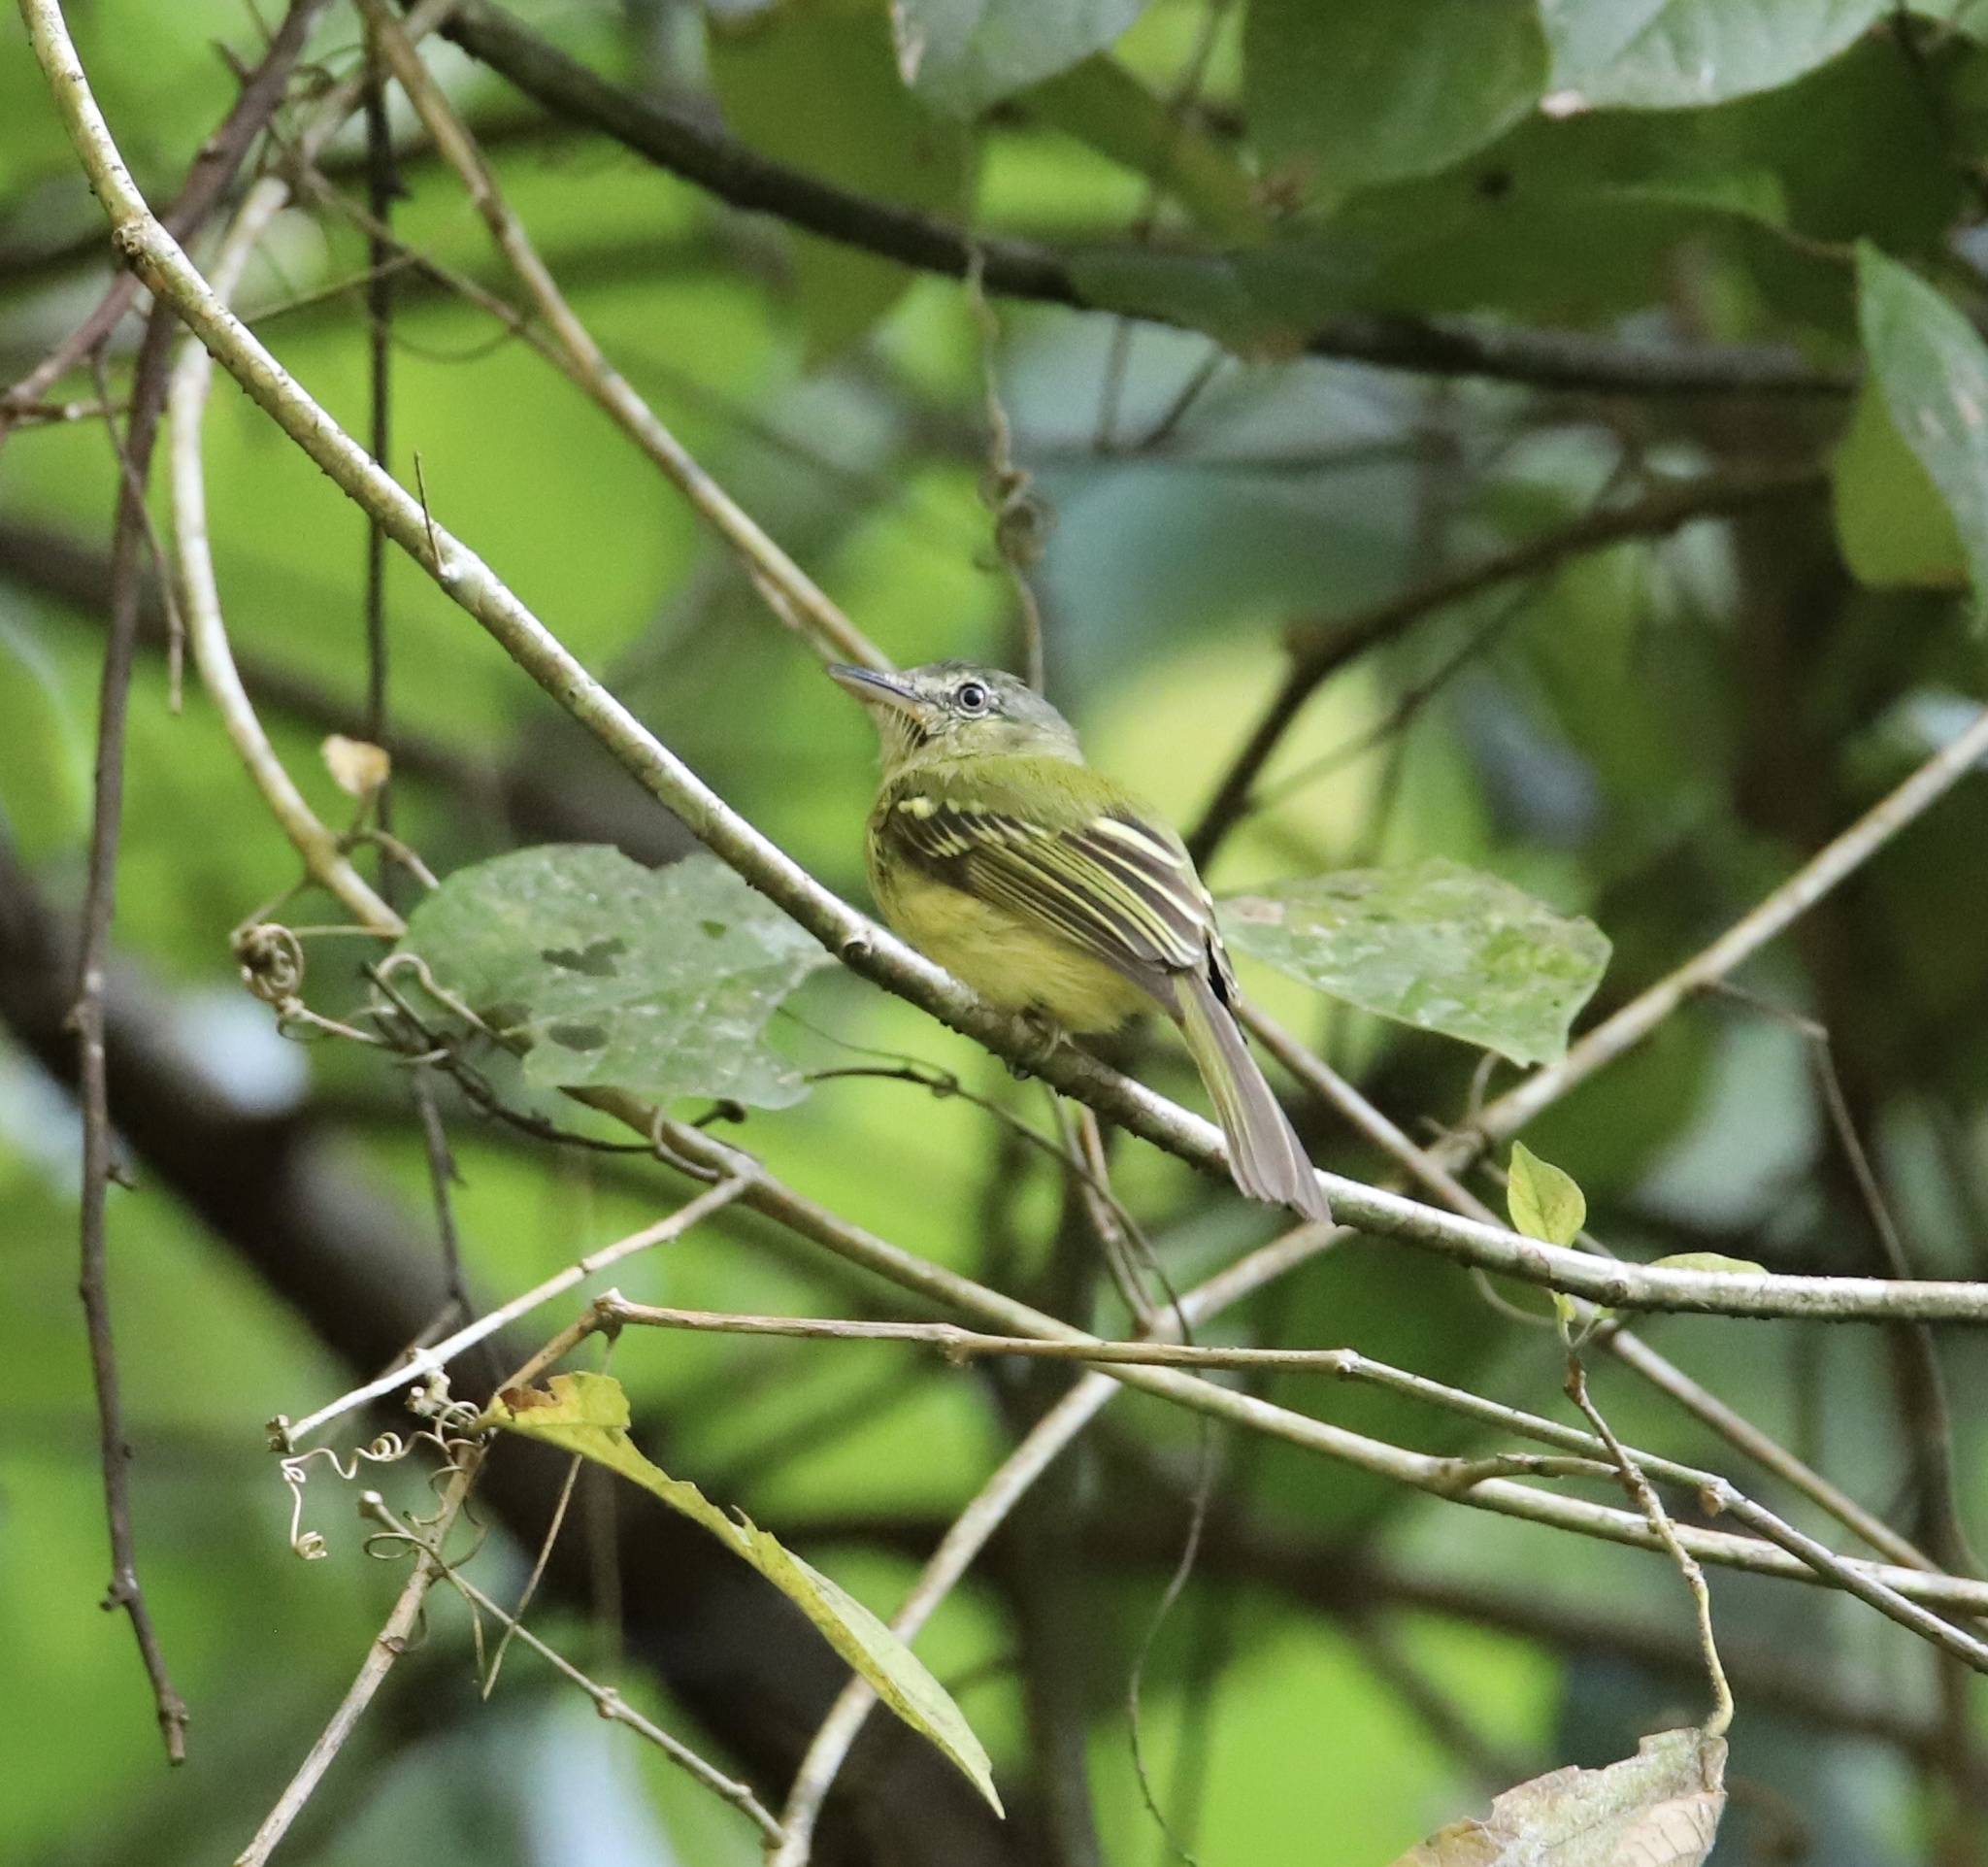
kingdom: Animalia
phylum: Chordata
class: Aves
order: Passeriformes
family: Tyrannidae
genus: Tolmomyias
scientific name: Tolmomyias sulphurescens
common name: Yellow-olive flycatcher
